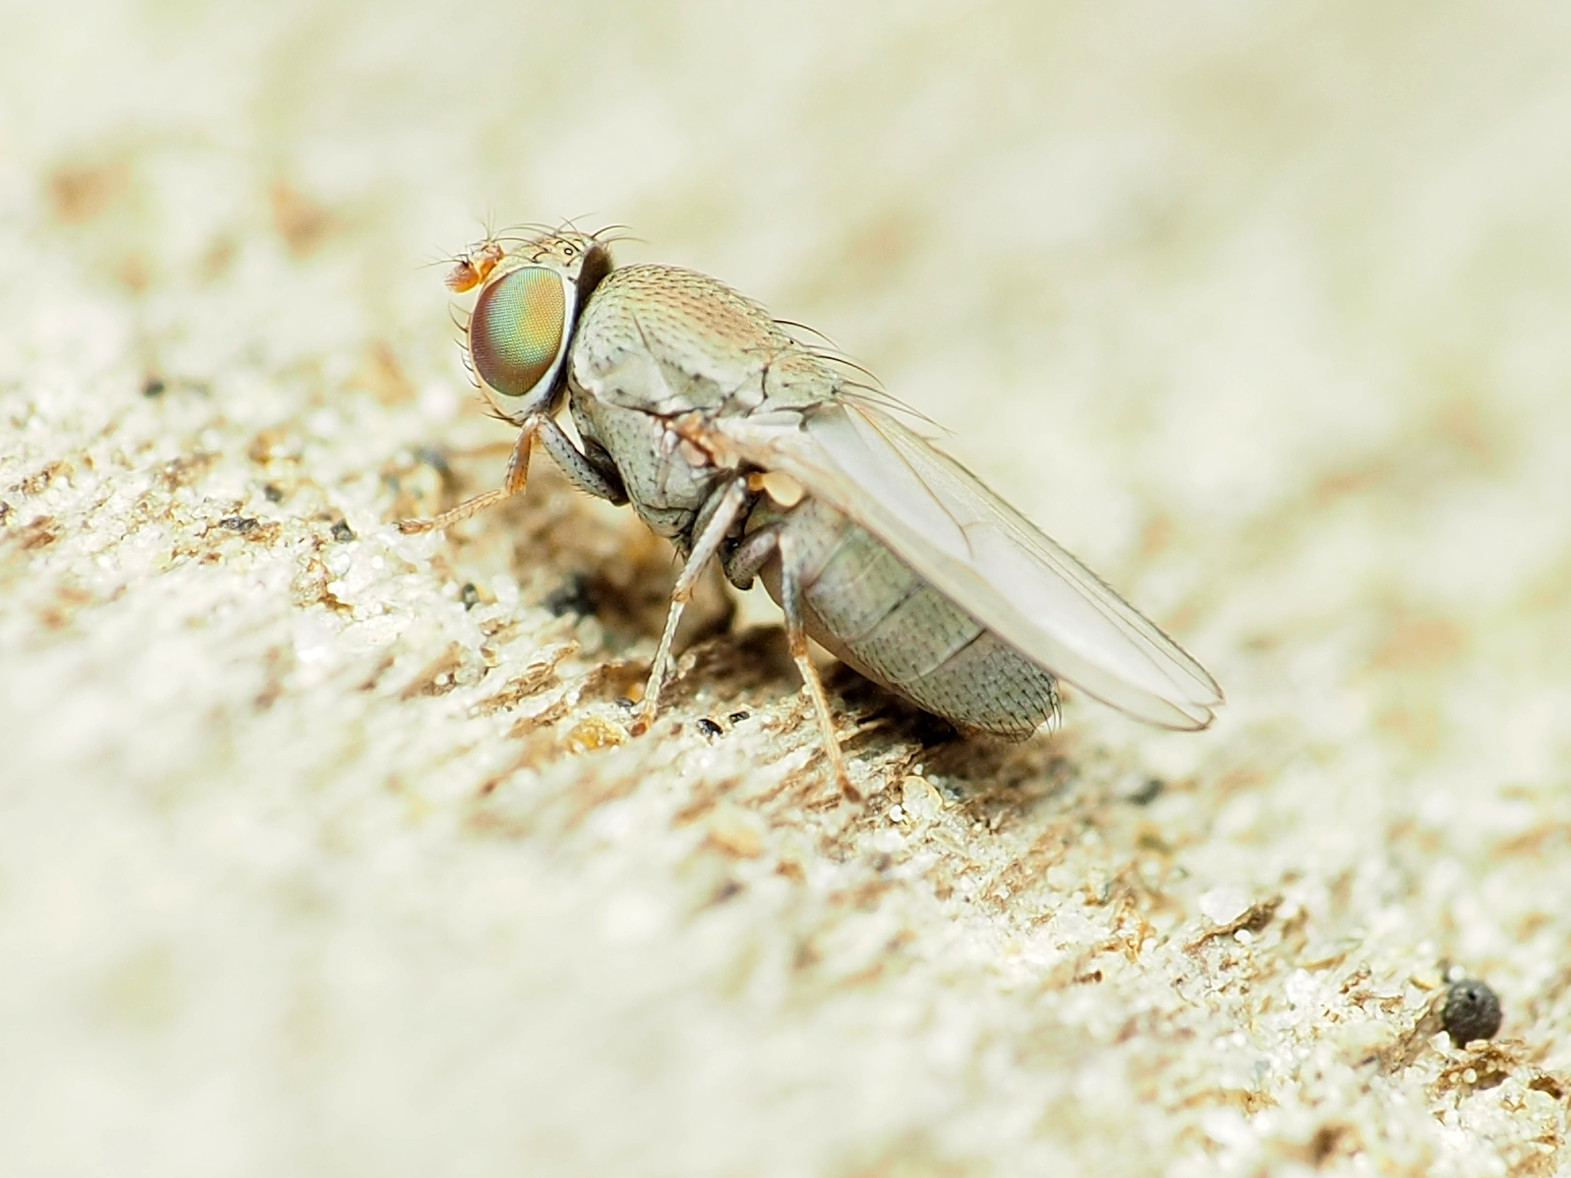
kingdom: Animalia
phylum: Arthropoda
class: Insecta
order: Diptera
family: Ephydridae
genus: Diclasiopa
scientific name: Diclasiopa lacteipennis
